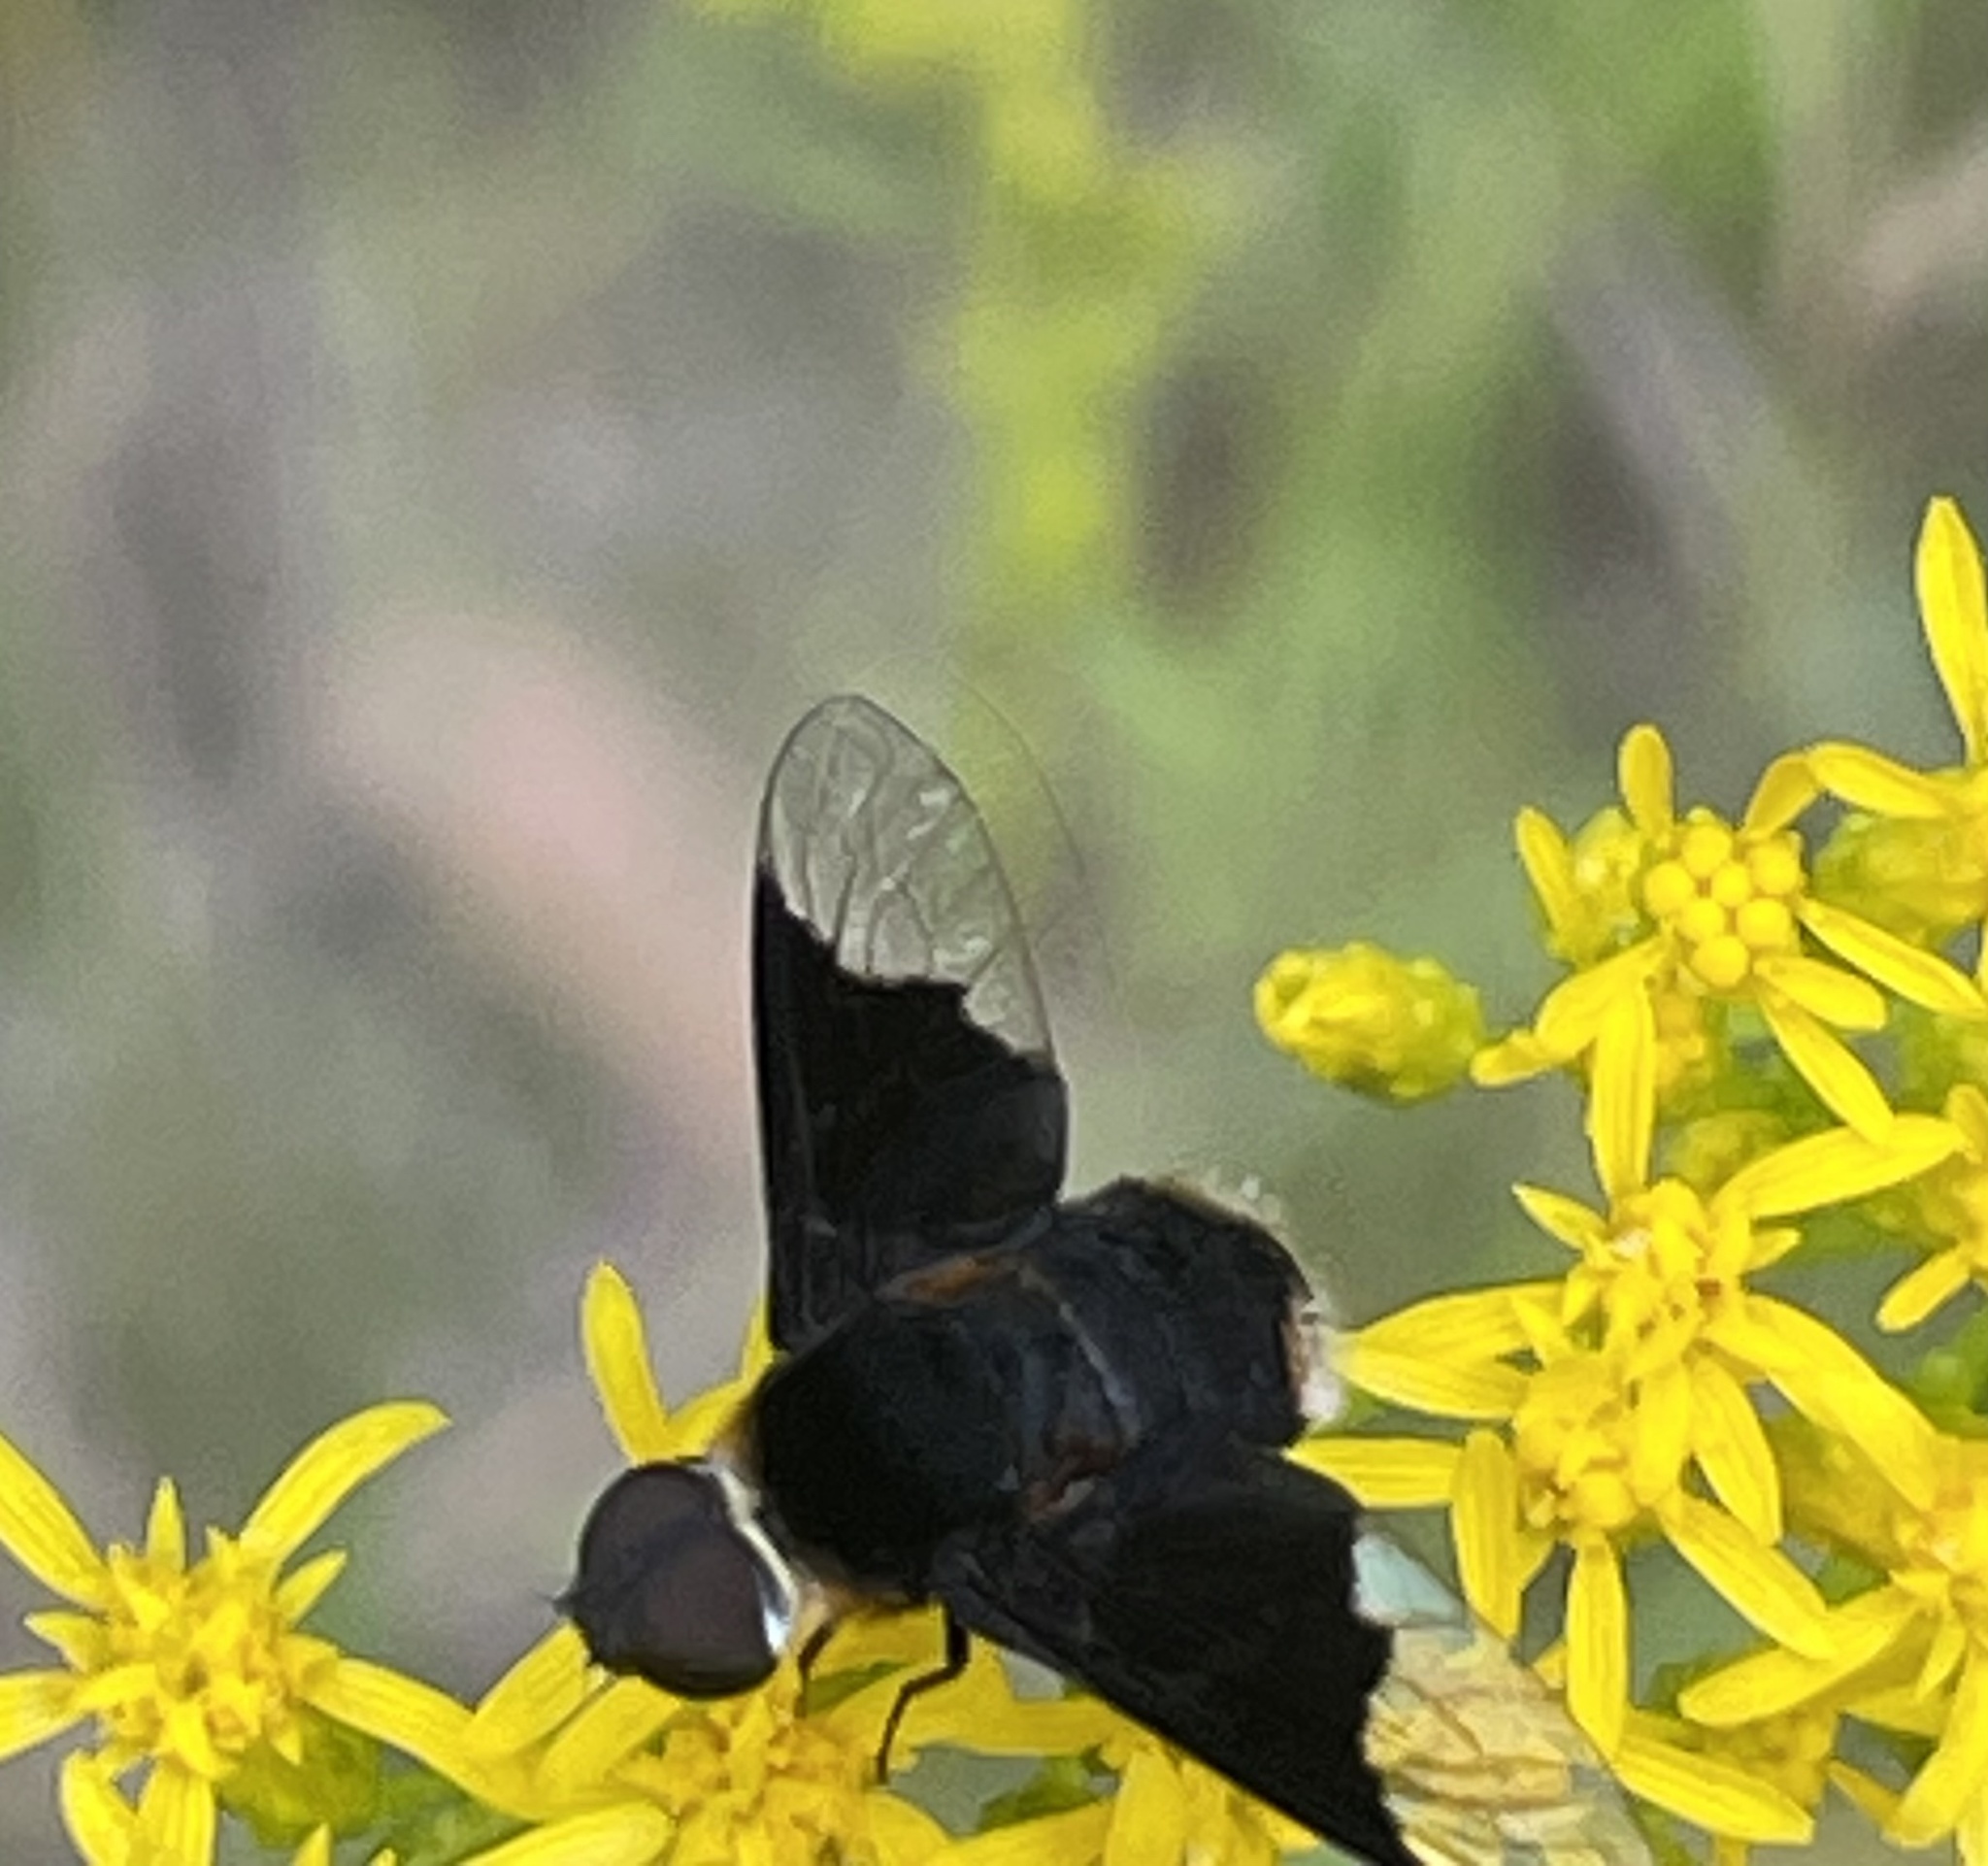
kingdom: Animalia
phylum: Arthropoda
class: Insecta
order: Diptera
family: Bombyliidae
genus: Ins
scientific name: Ins celeris
